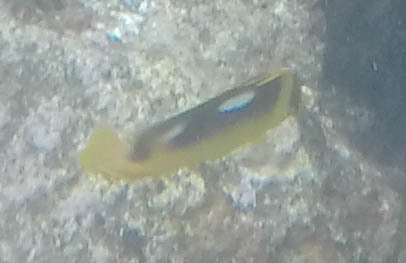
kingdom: Animalia
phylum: Chordata
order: Perciformes
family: Chaetodontidae
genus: Chaetodon
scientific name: Chaetodon quadrimaculatus
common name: Fourspot butterflyfish
